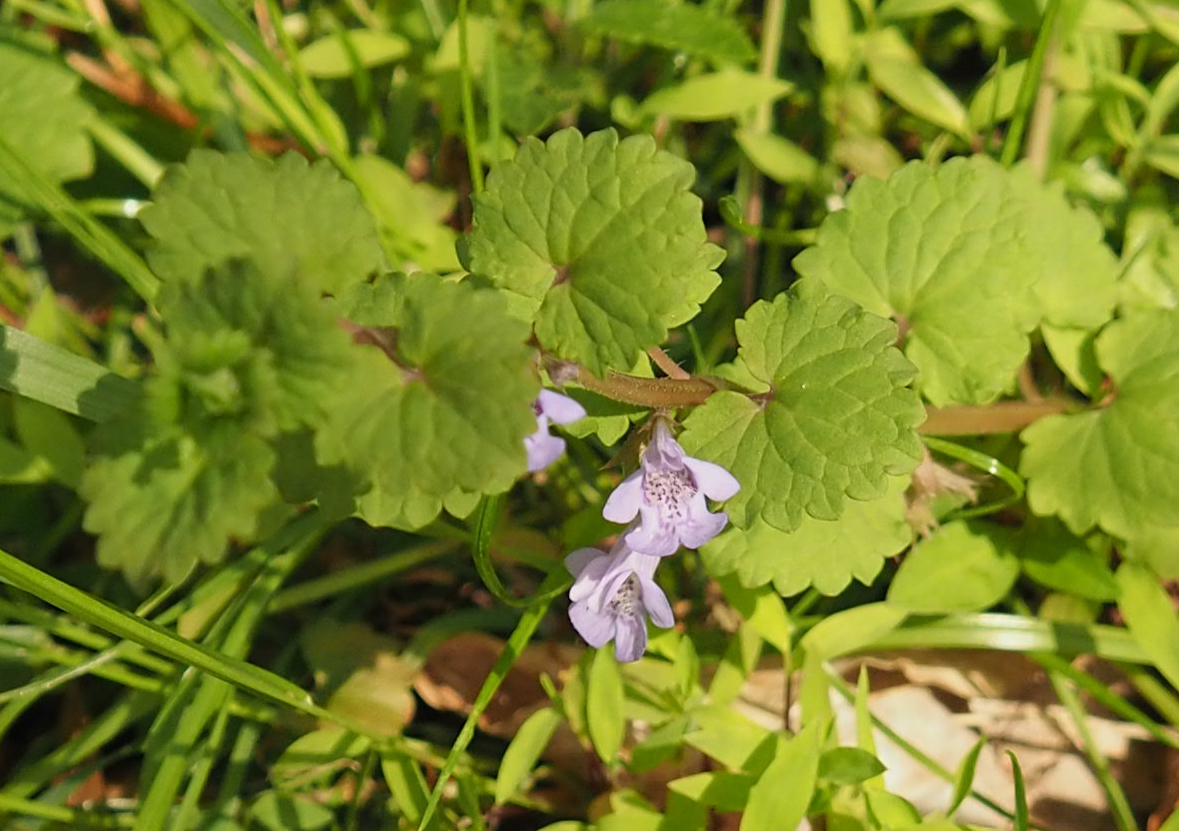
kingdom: Plantae
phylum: Tracheophyta
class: Magnoliopsida
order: Lamiales
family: Lamiaceae
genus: Glechoma
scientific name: Glechoma hederacea
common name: Ground ivy
